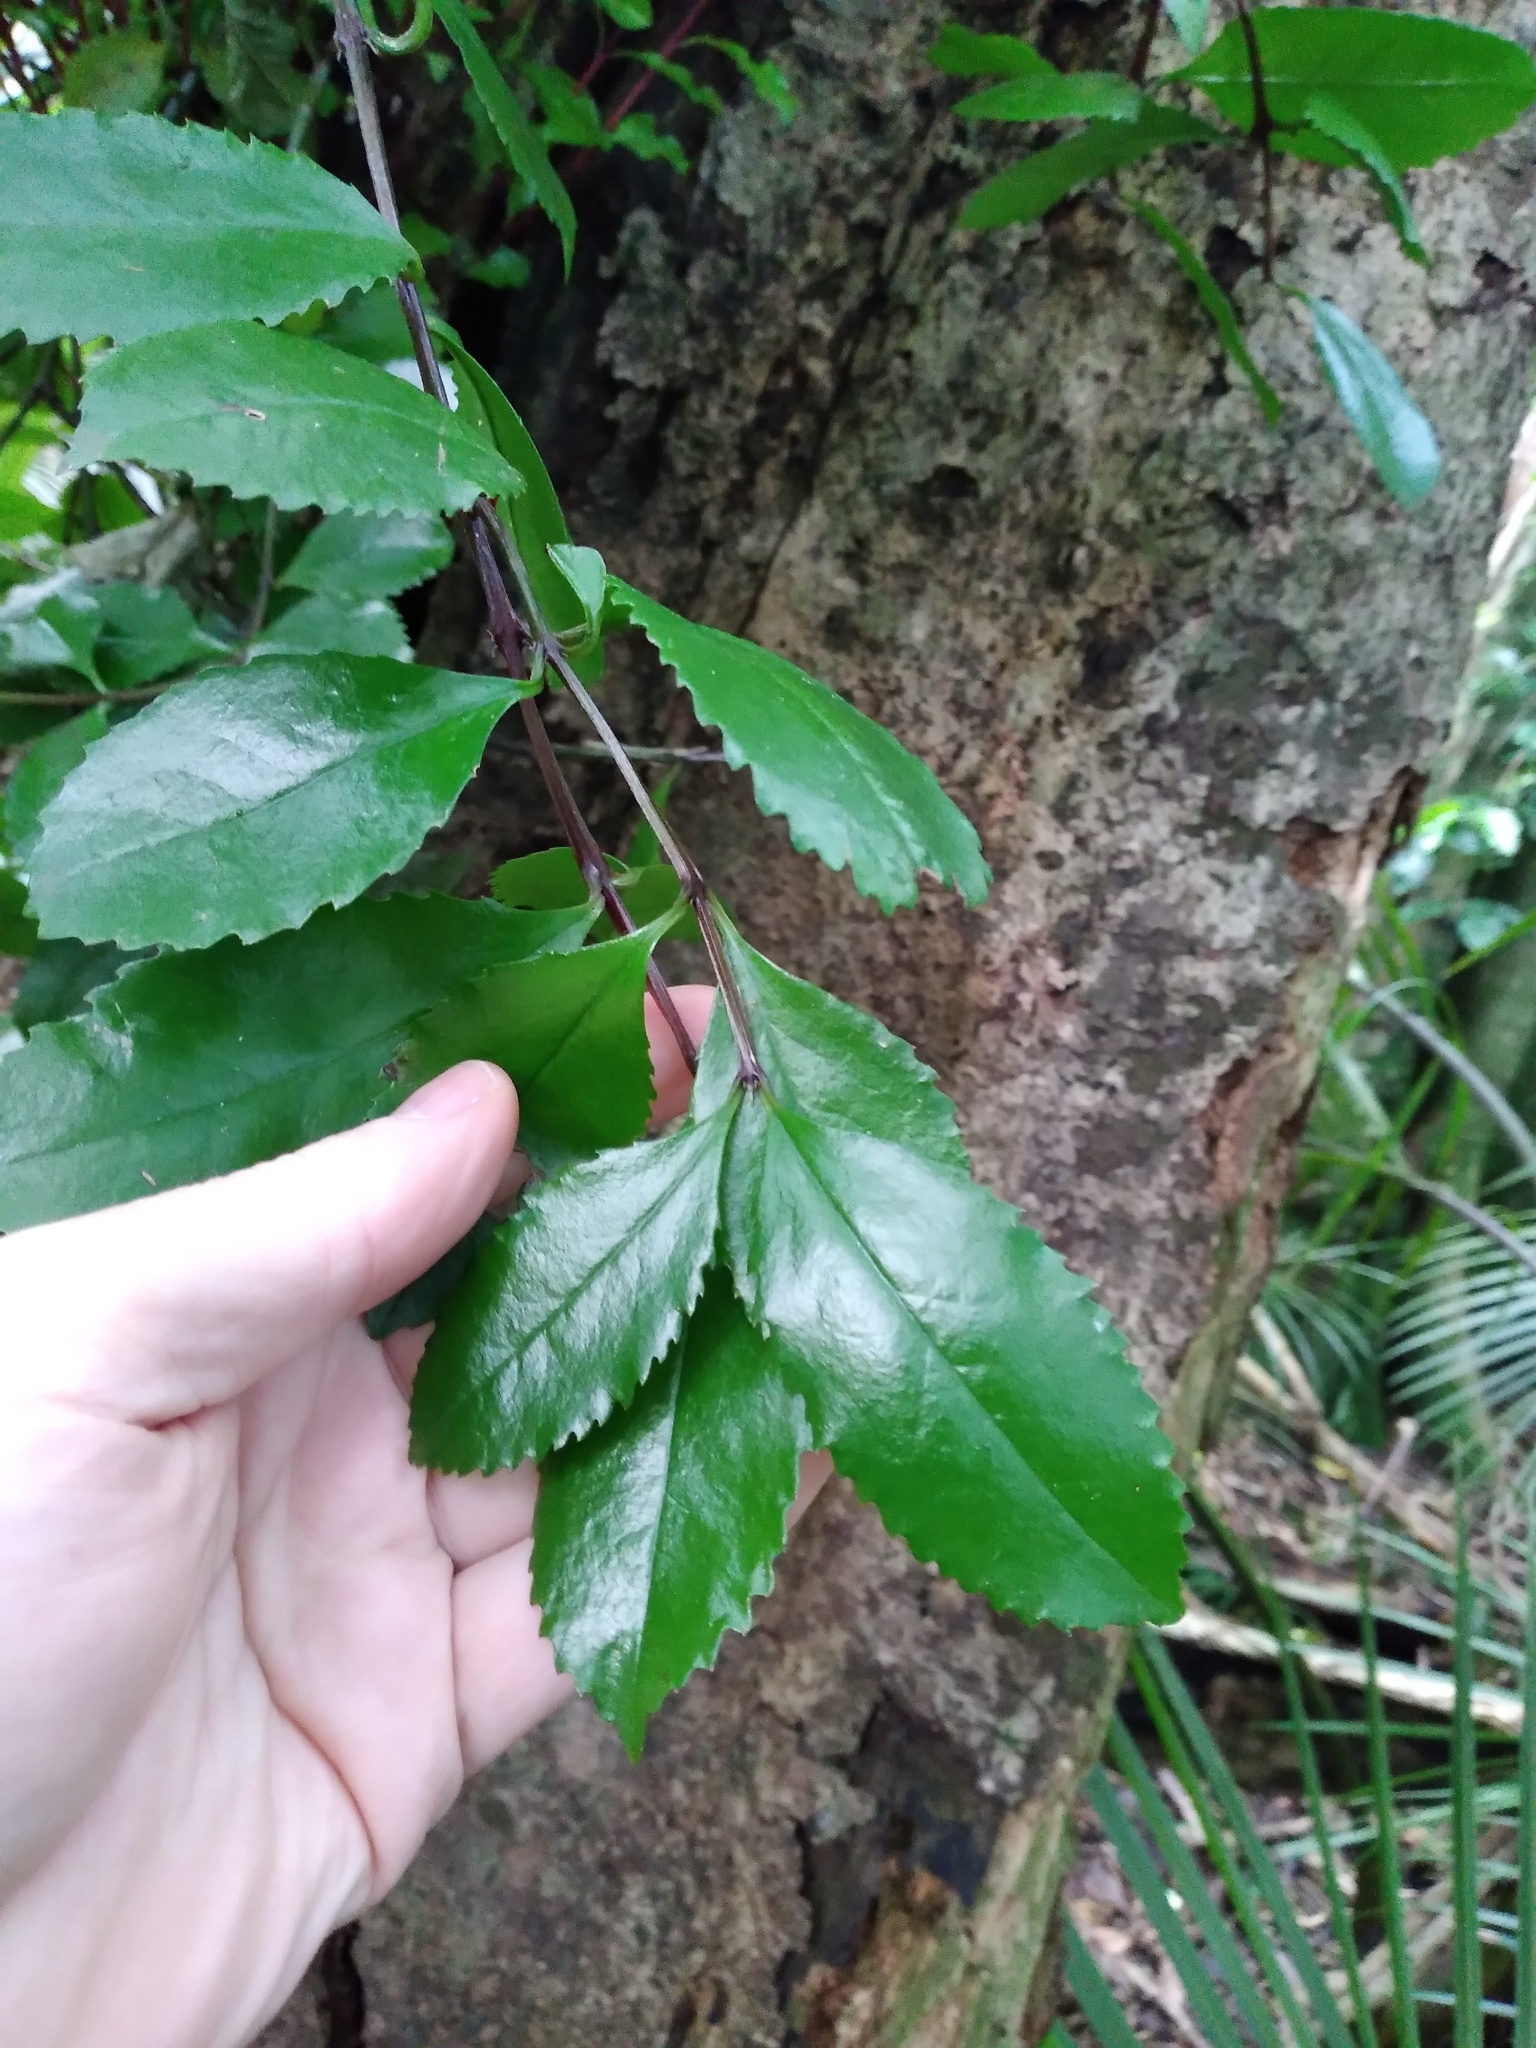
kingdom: Plantae
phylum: Tracheophyta
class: Magnoliopsida
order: Laurales
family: Atherospermataceae
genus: Laurelia
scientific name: Laurelia novae-zelandiae
